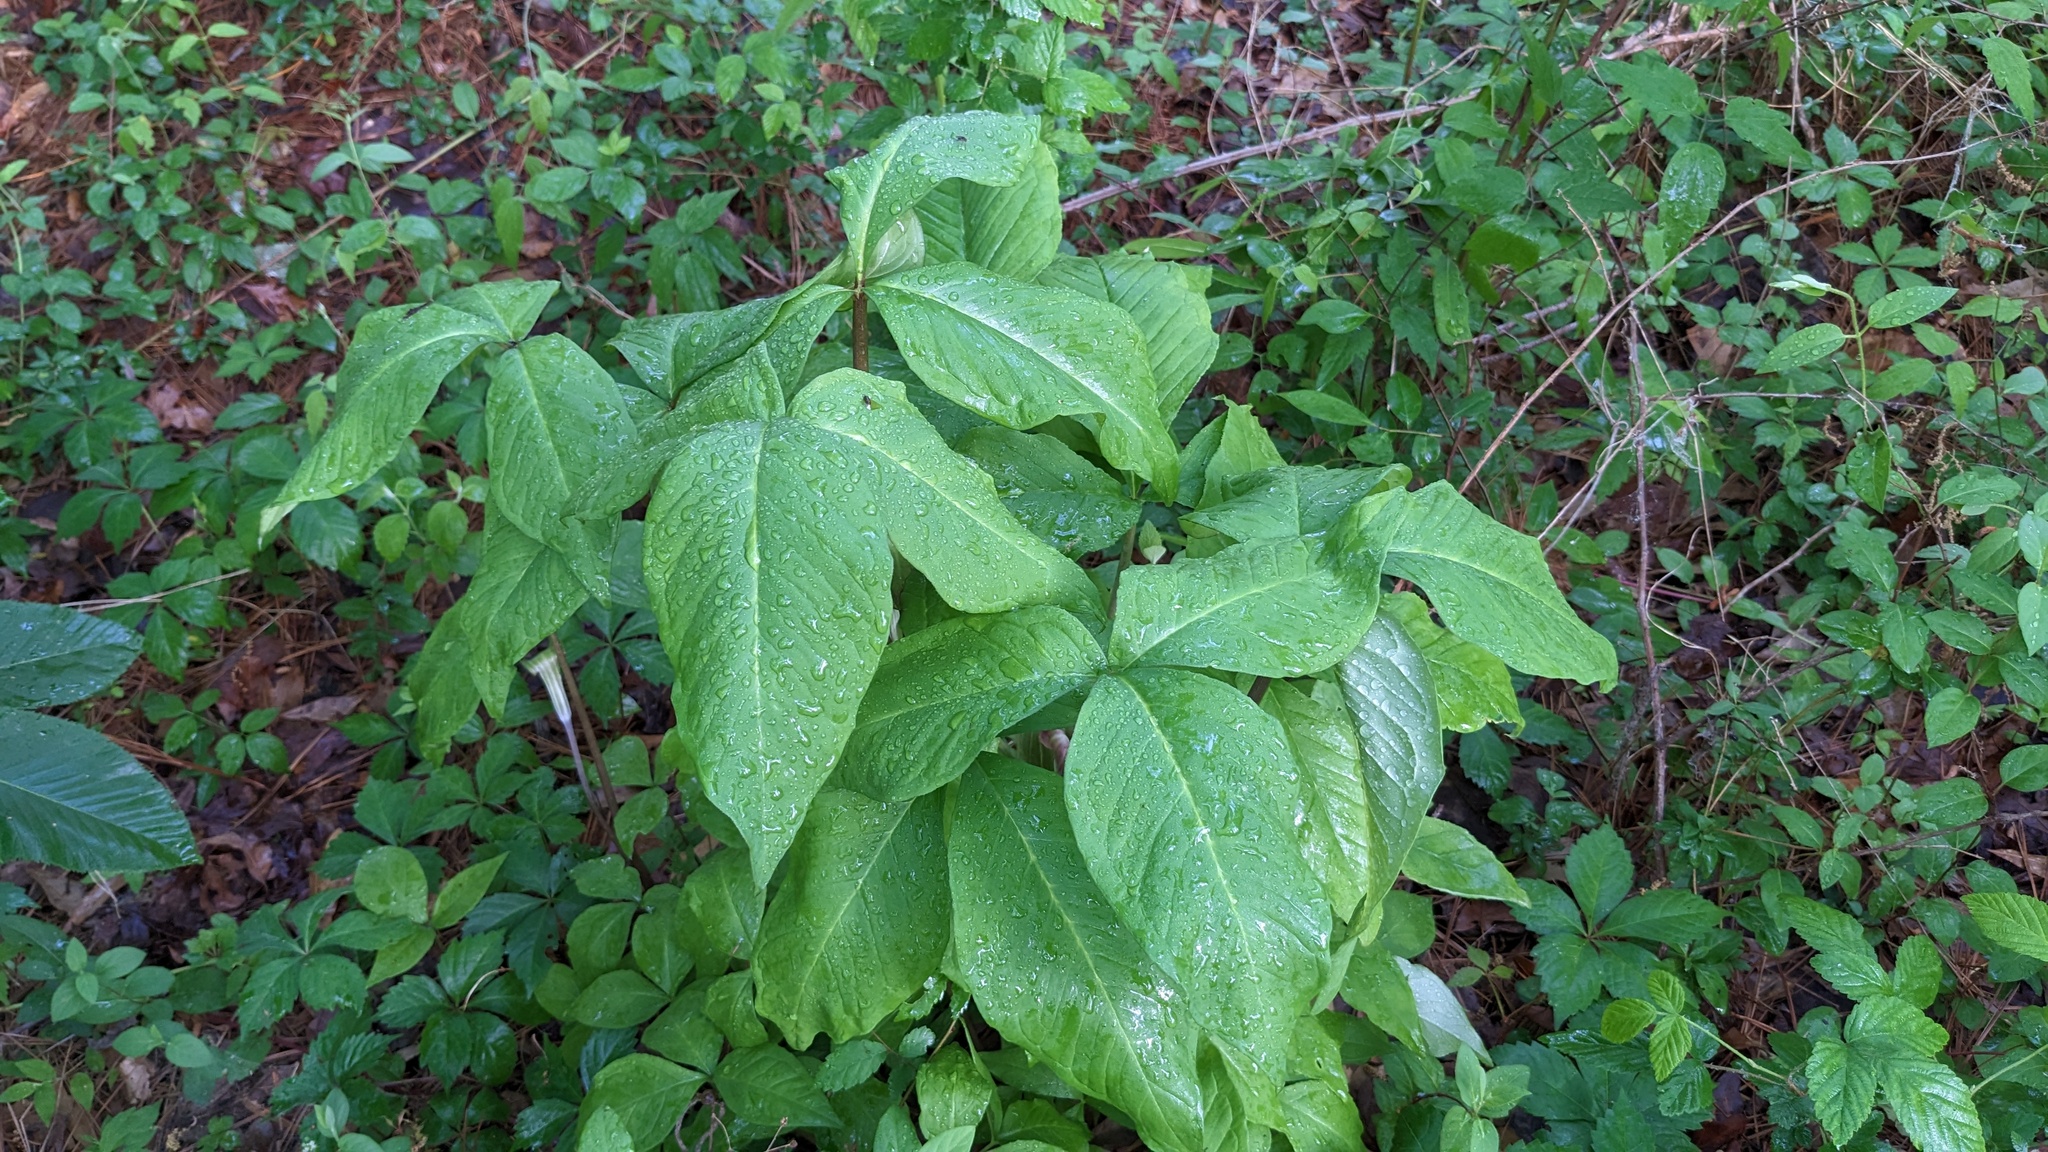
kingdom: Plantae
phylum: Tracheophyta
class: Liliopsida
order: Alismatales
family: Araceae
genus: Arisaema
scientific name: Arisaema triphyllum
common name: Jack-in-the-pulpit
